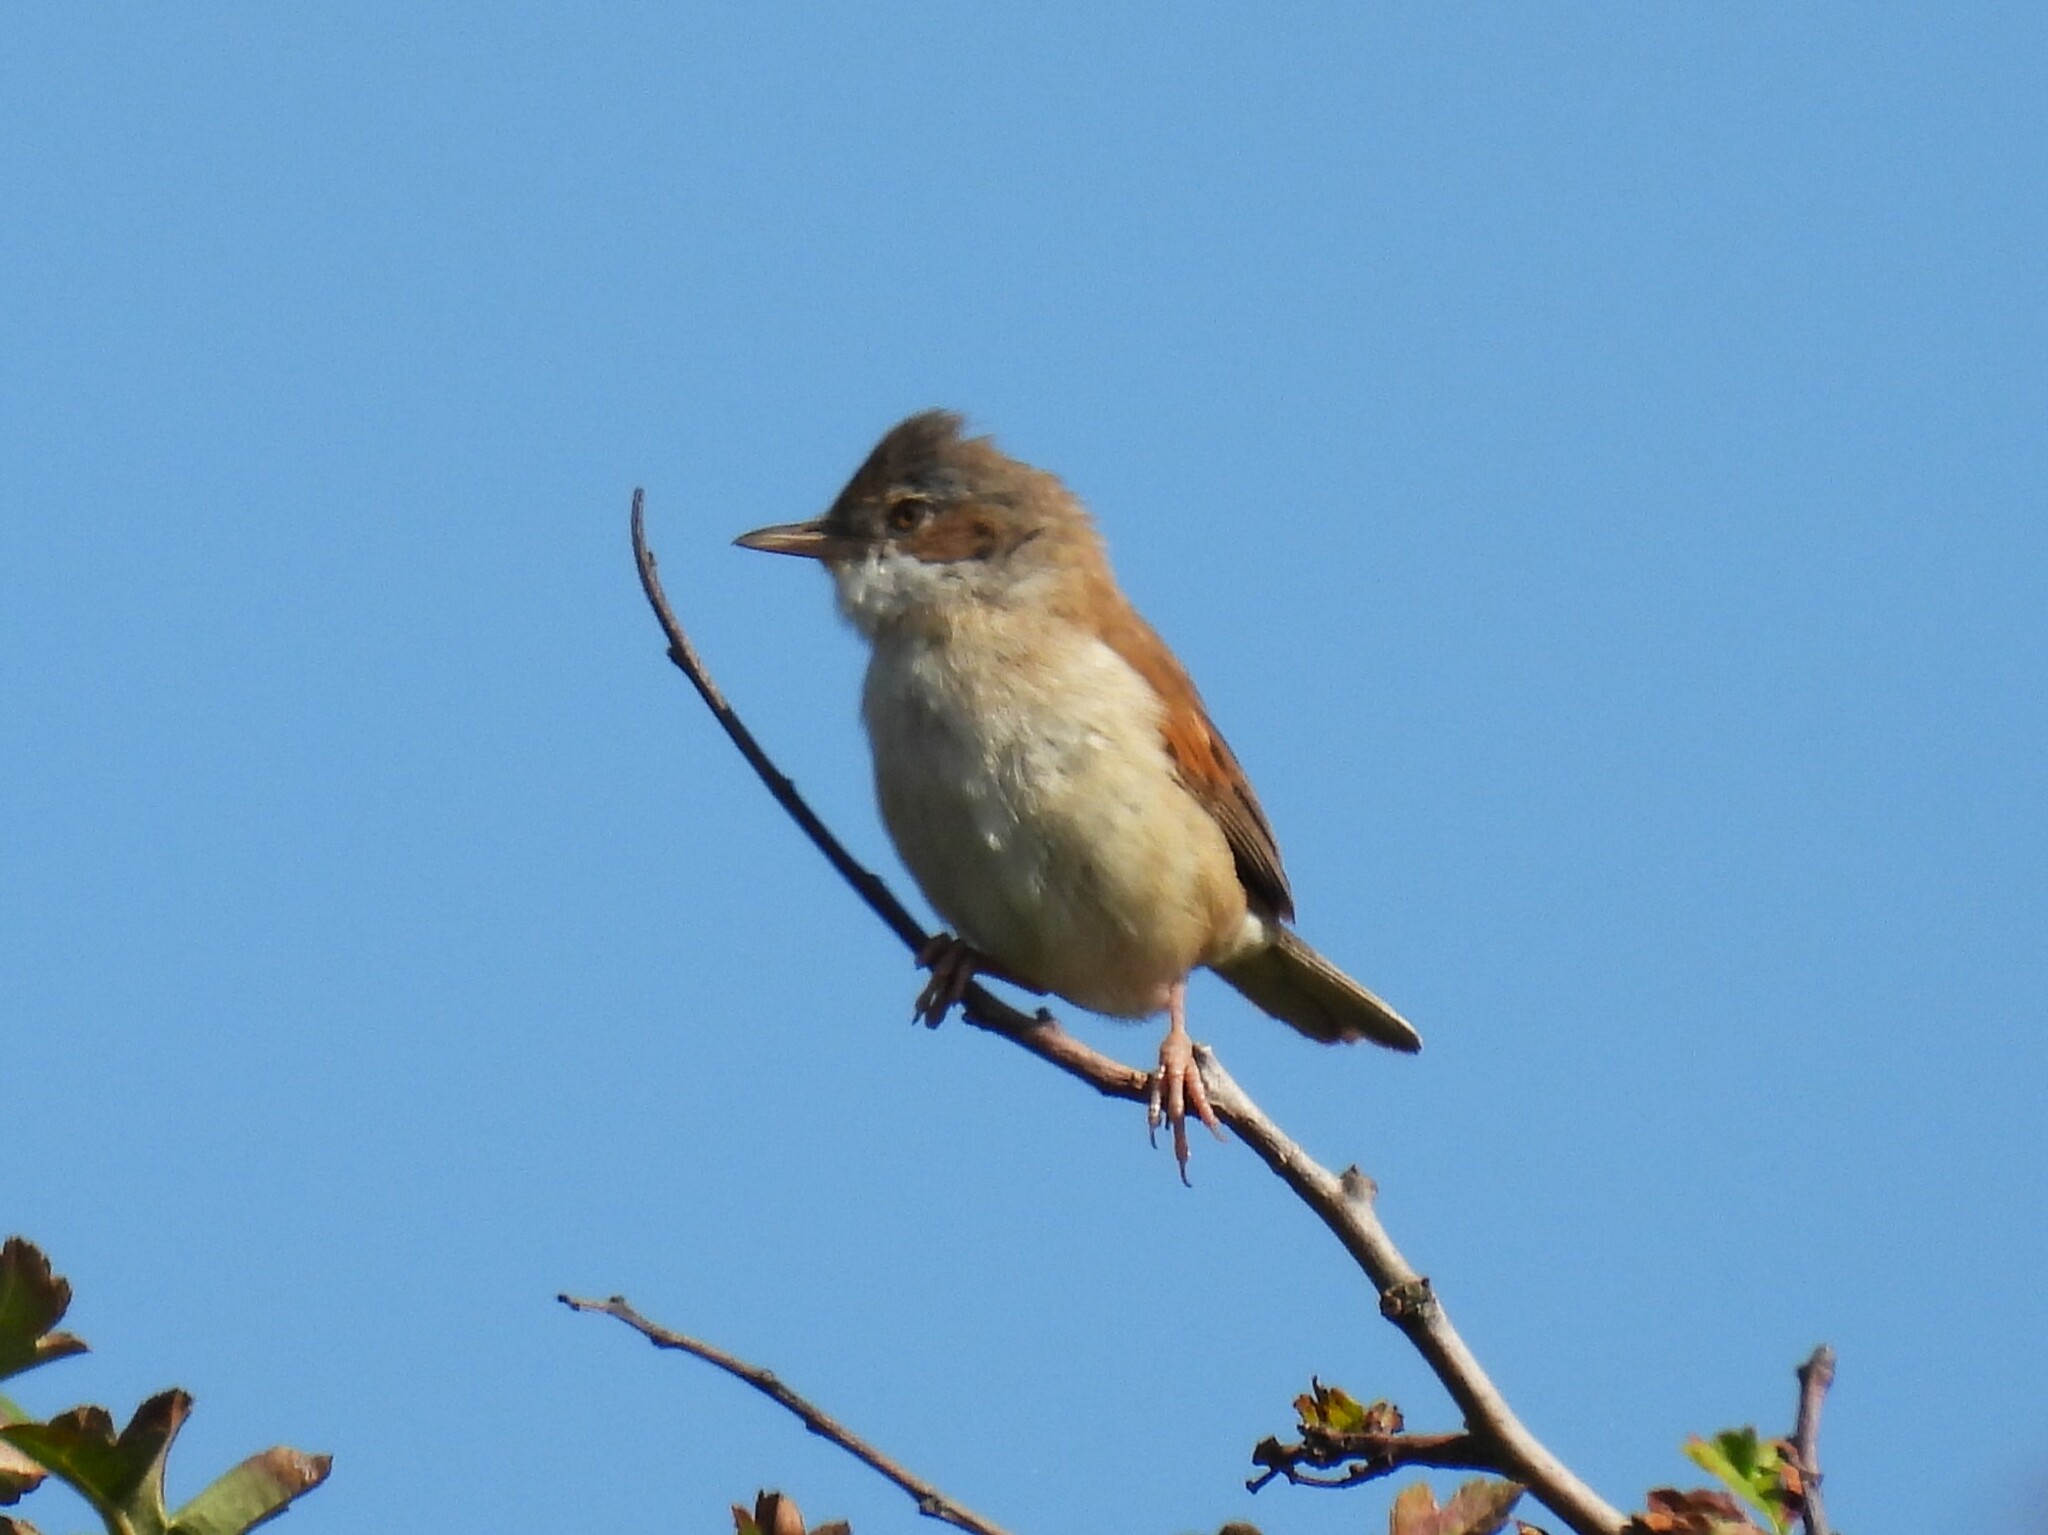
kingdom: Animalia
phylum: Chordata
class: Aves
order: Passeriformes
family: Sylviidae
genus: Sylvia
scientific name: Sylvia communis
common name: Common whitethroat
